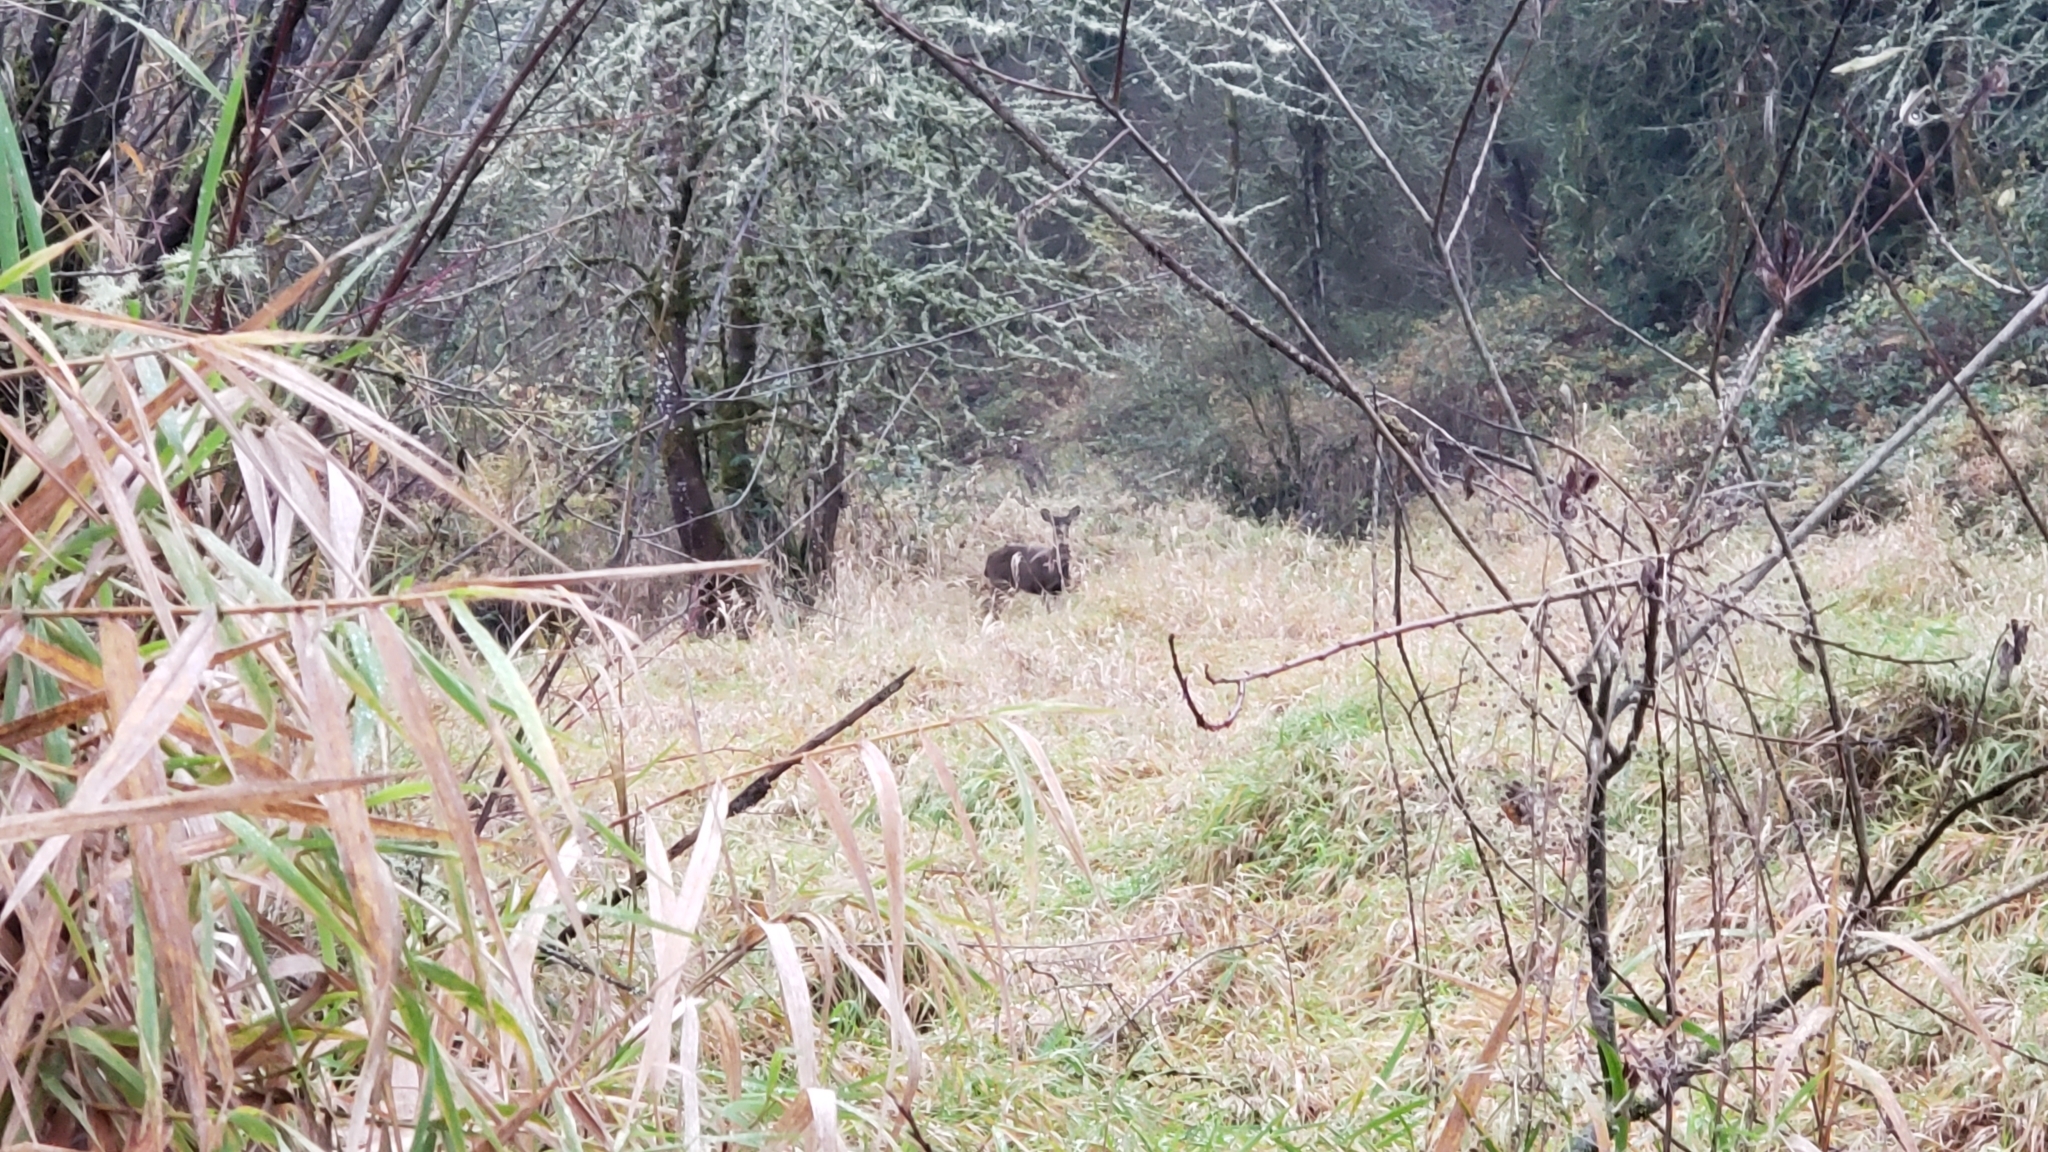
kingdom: Animalia
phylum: Chordata
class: Mammalia
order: Artiodactyla
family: Cervidae
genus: Odocoileus
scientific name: Odocoileus hemionus
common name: Mule deer
